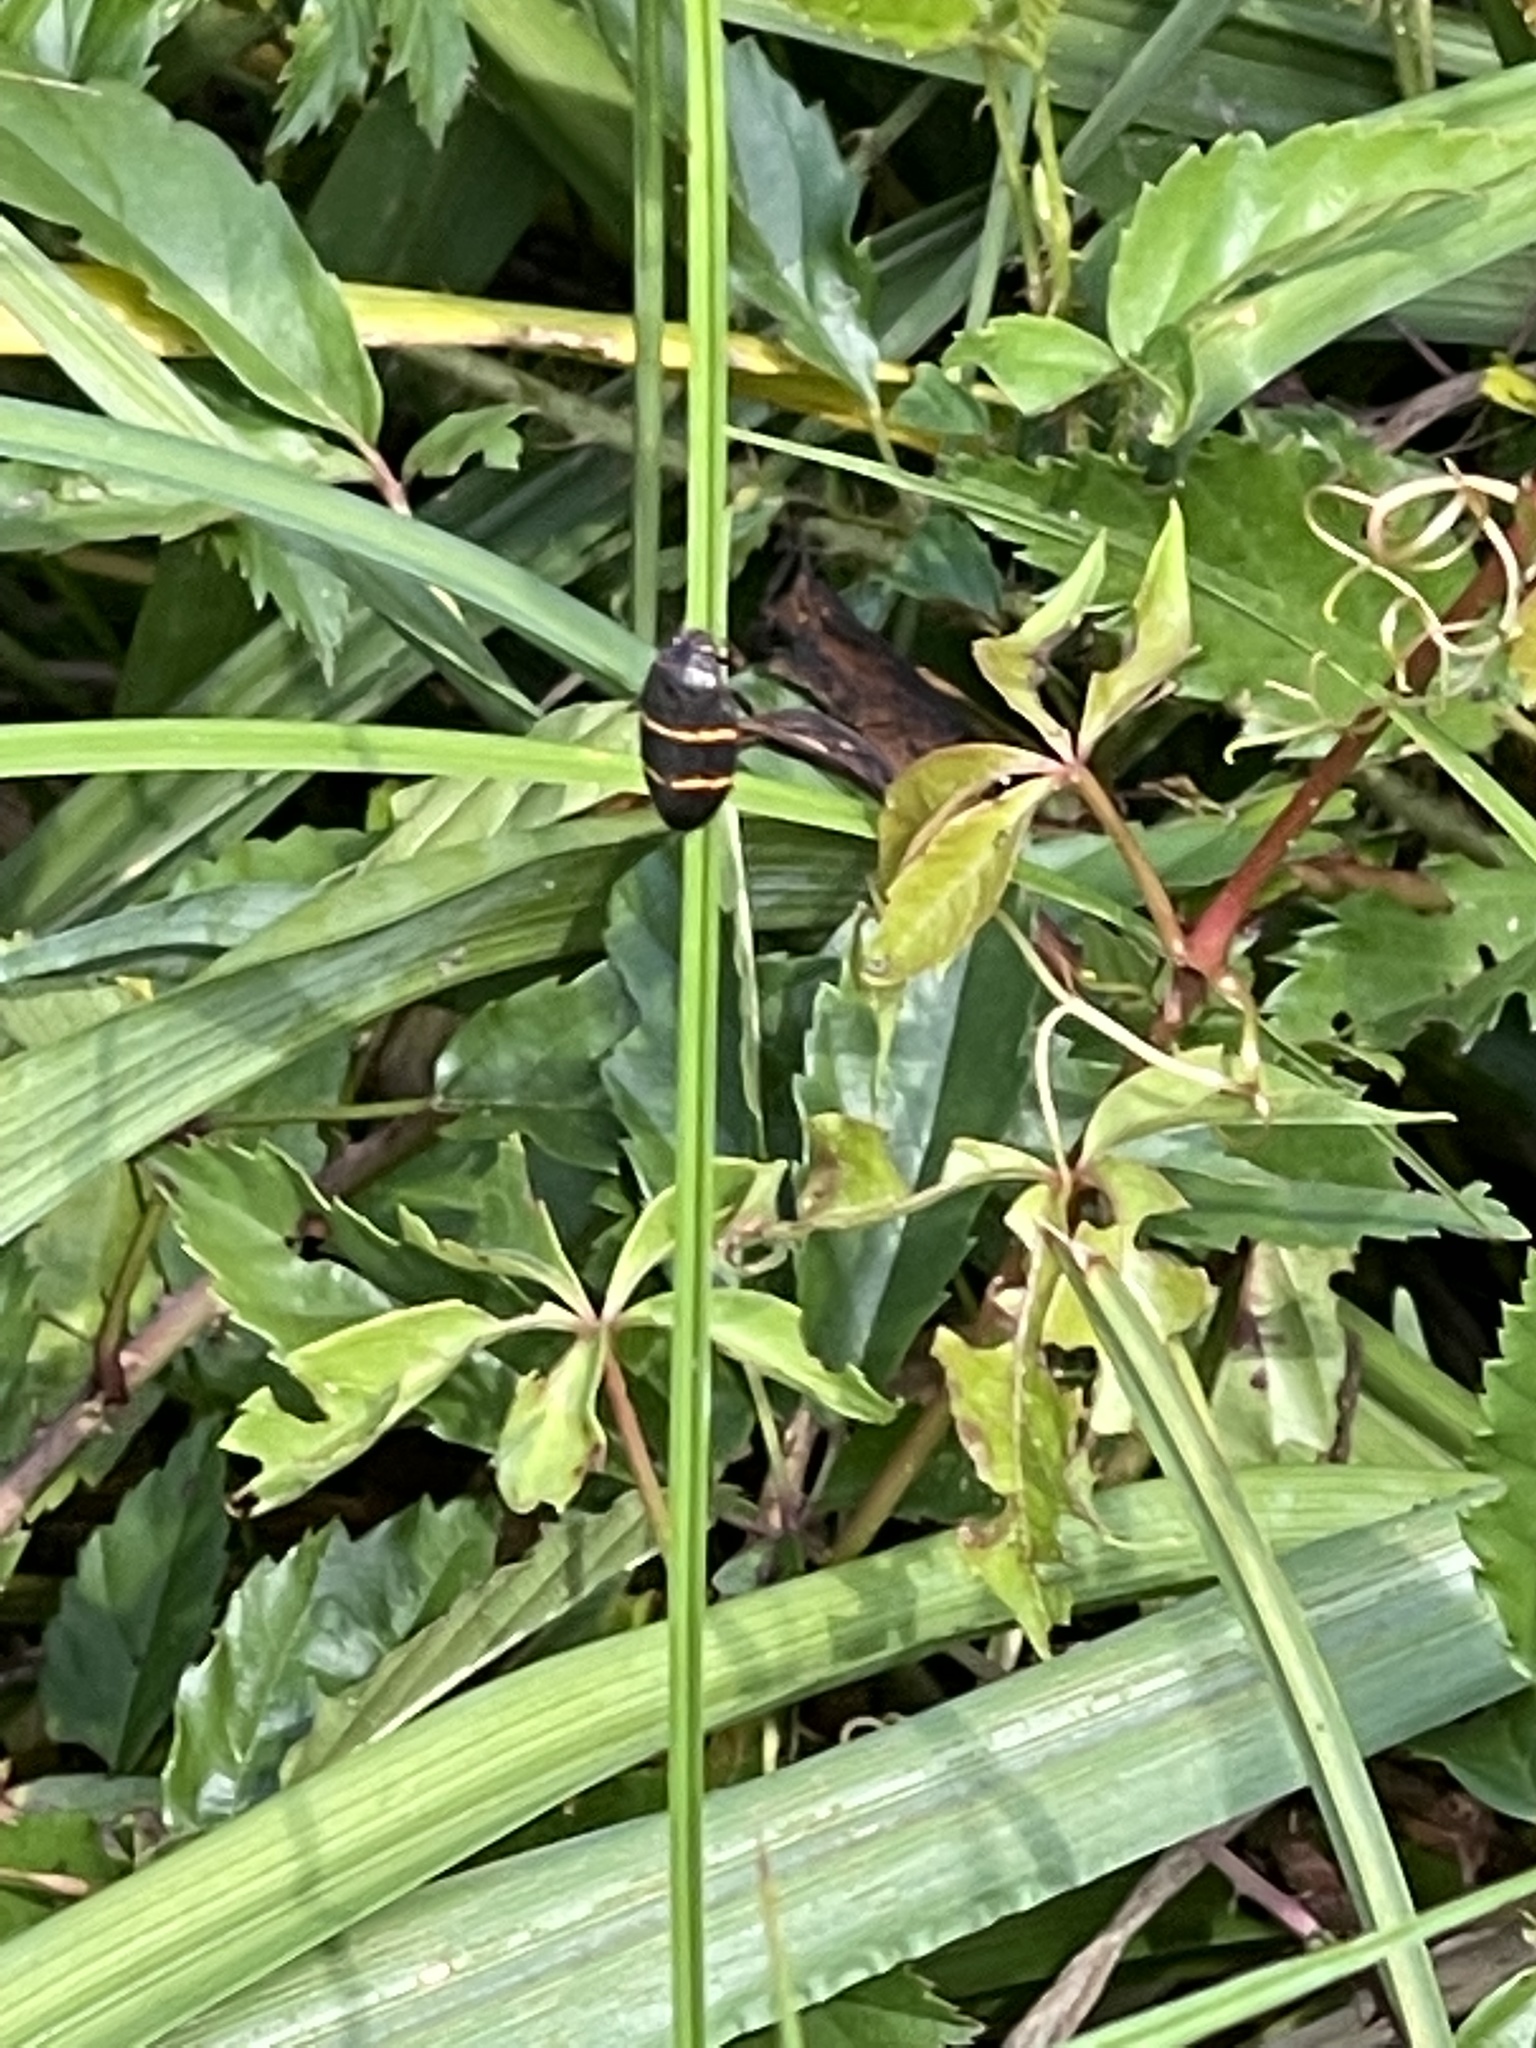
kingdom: Animalia
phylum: Arthropoda
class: Insecta
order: Hemiptera
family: Cercopidae
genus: Prosapia
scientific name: Prosapia bicincta
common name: Twolined spittlebug
